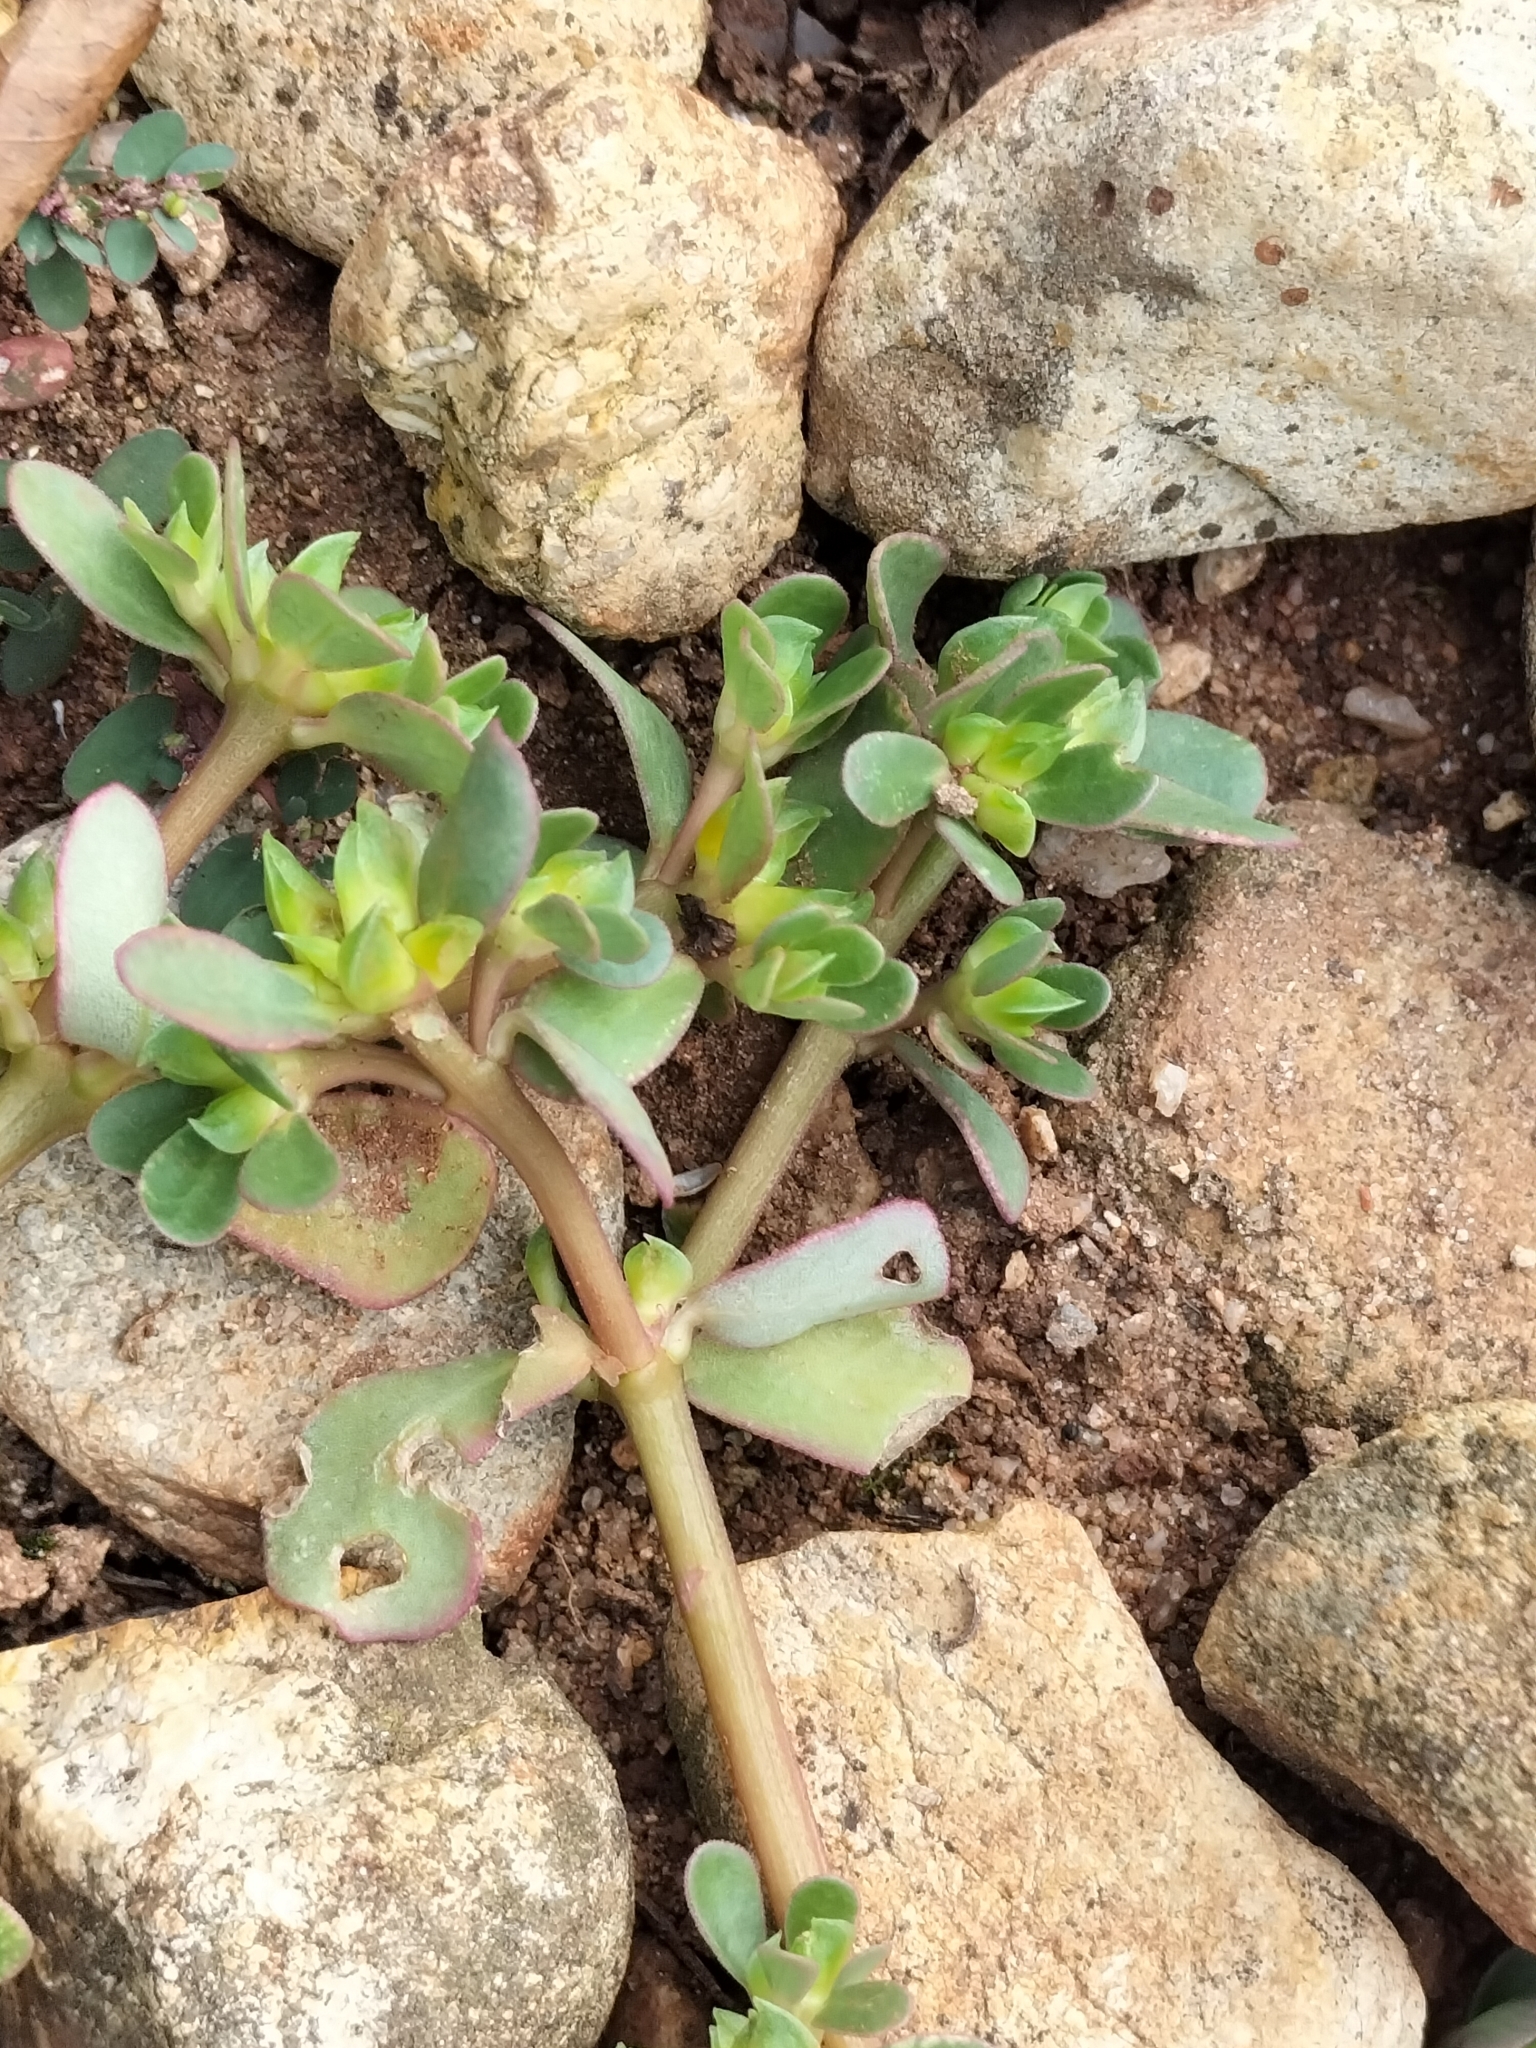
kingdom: Plantae
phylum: Tracheophyta
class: Magnoliopsida
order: Caryophyllales
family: Portulacaceae
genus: Portulaca
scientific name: Portulaca oleracea
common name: Common purslane
